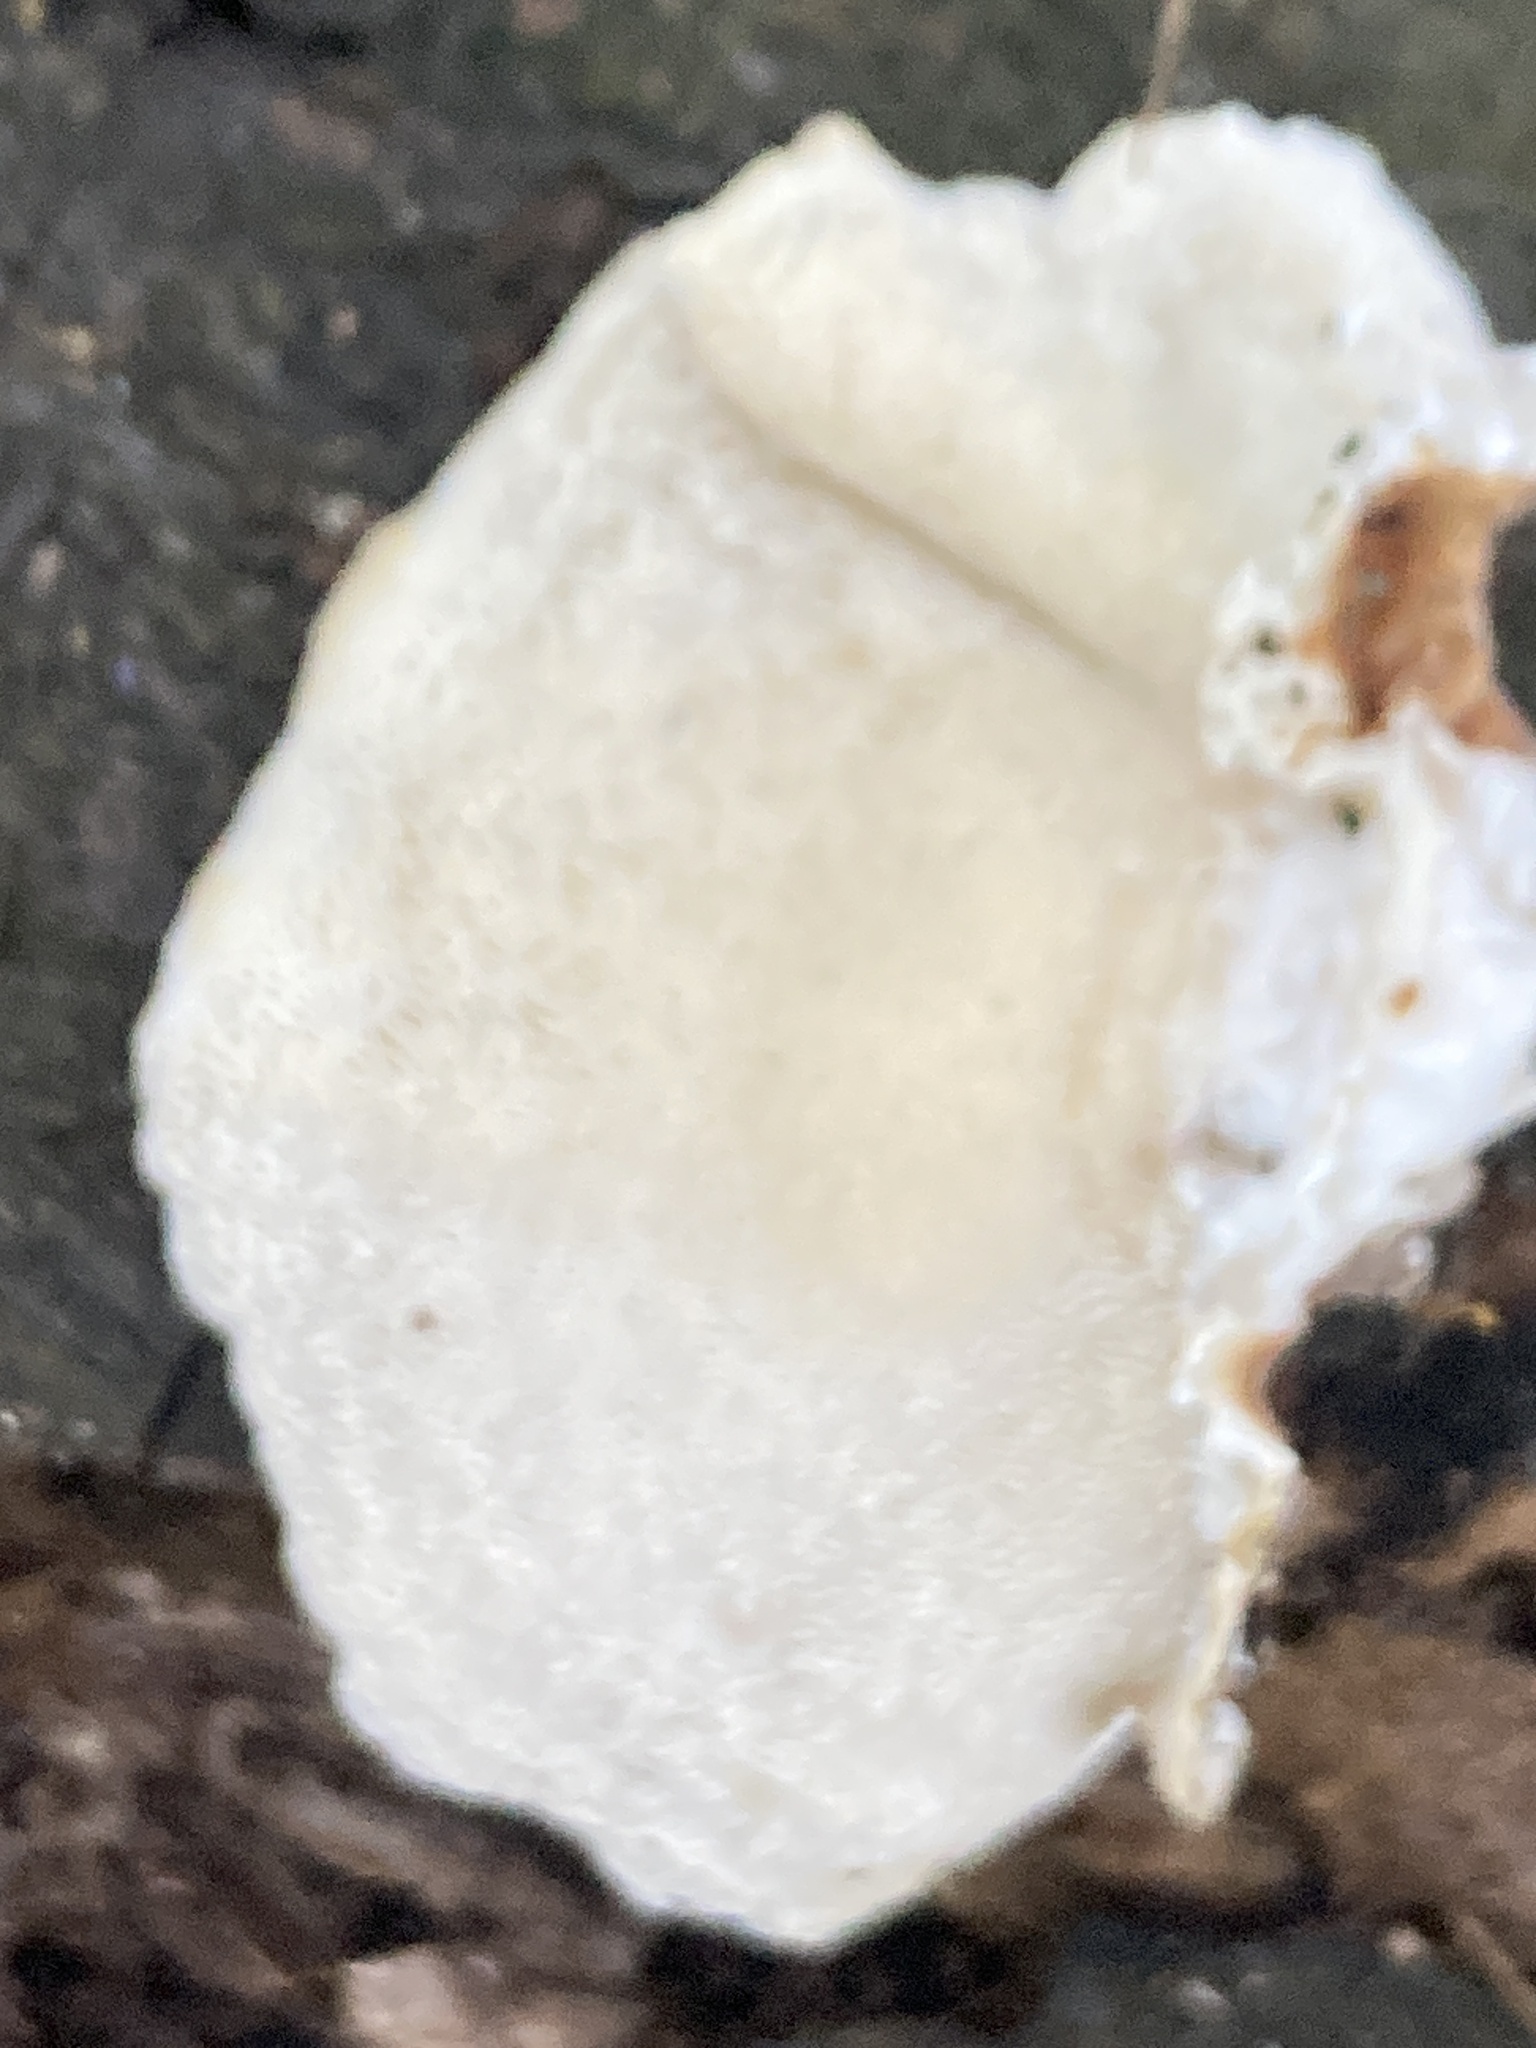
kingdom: Fungi
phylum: Basidiomycota
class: Agaricomycetes
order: Polyporales
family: Polyporaceae
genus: Trametes
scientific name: Trametes versicolor
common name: Turkeytail
